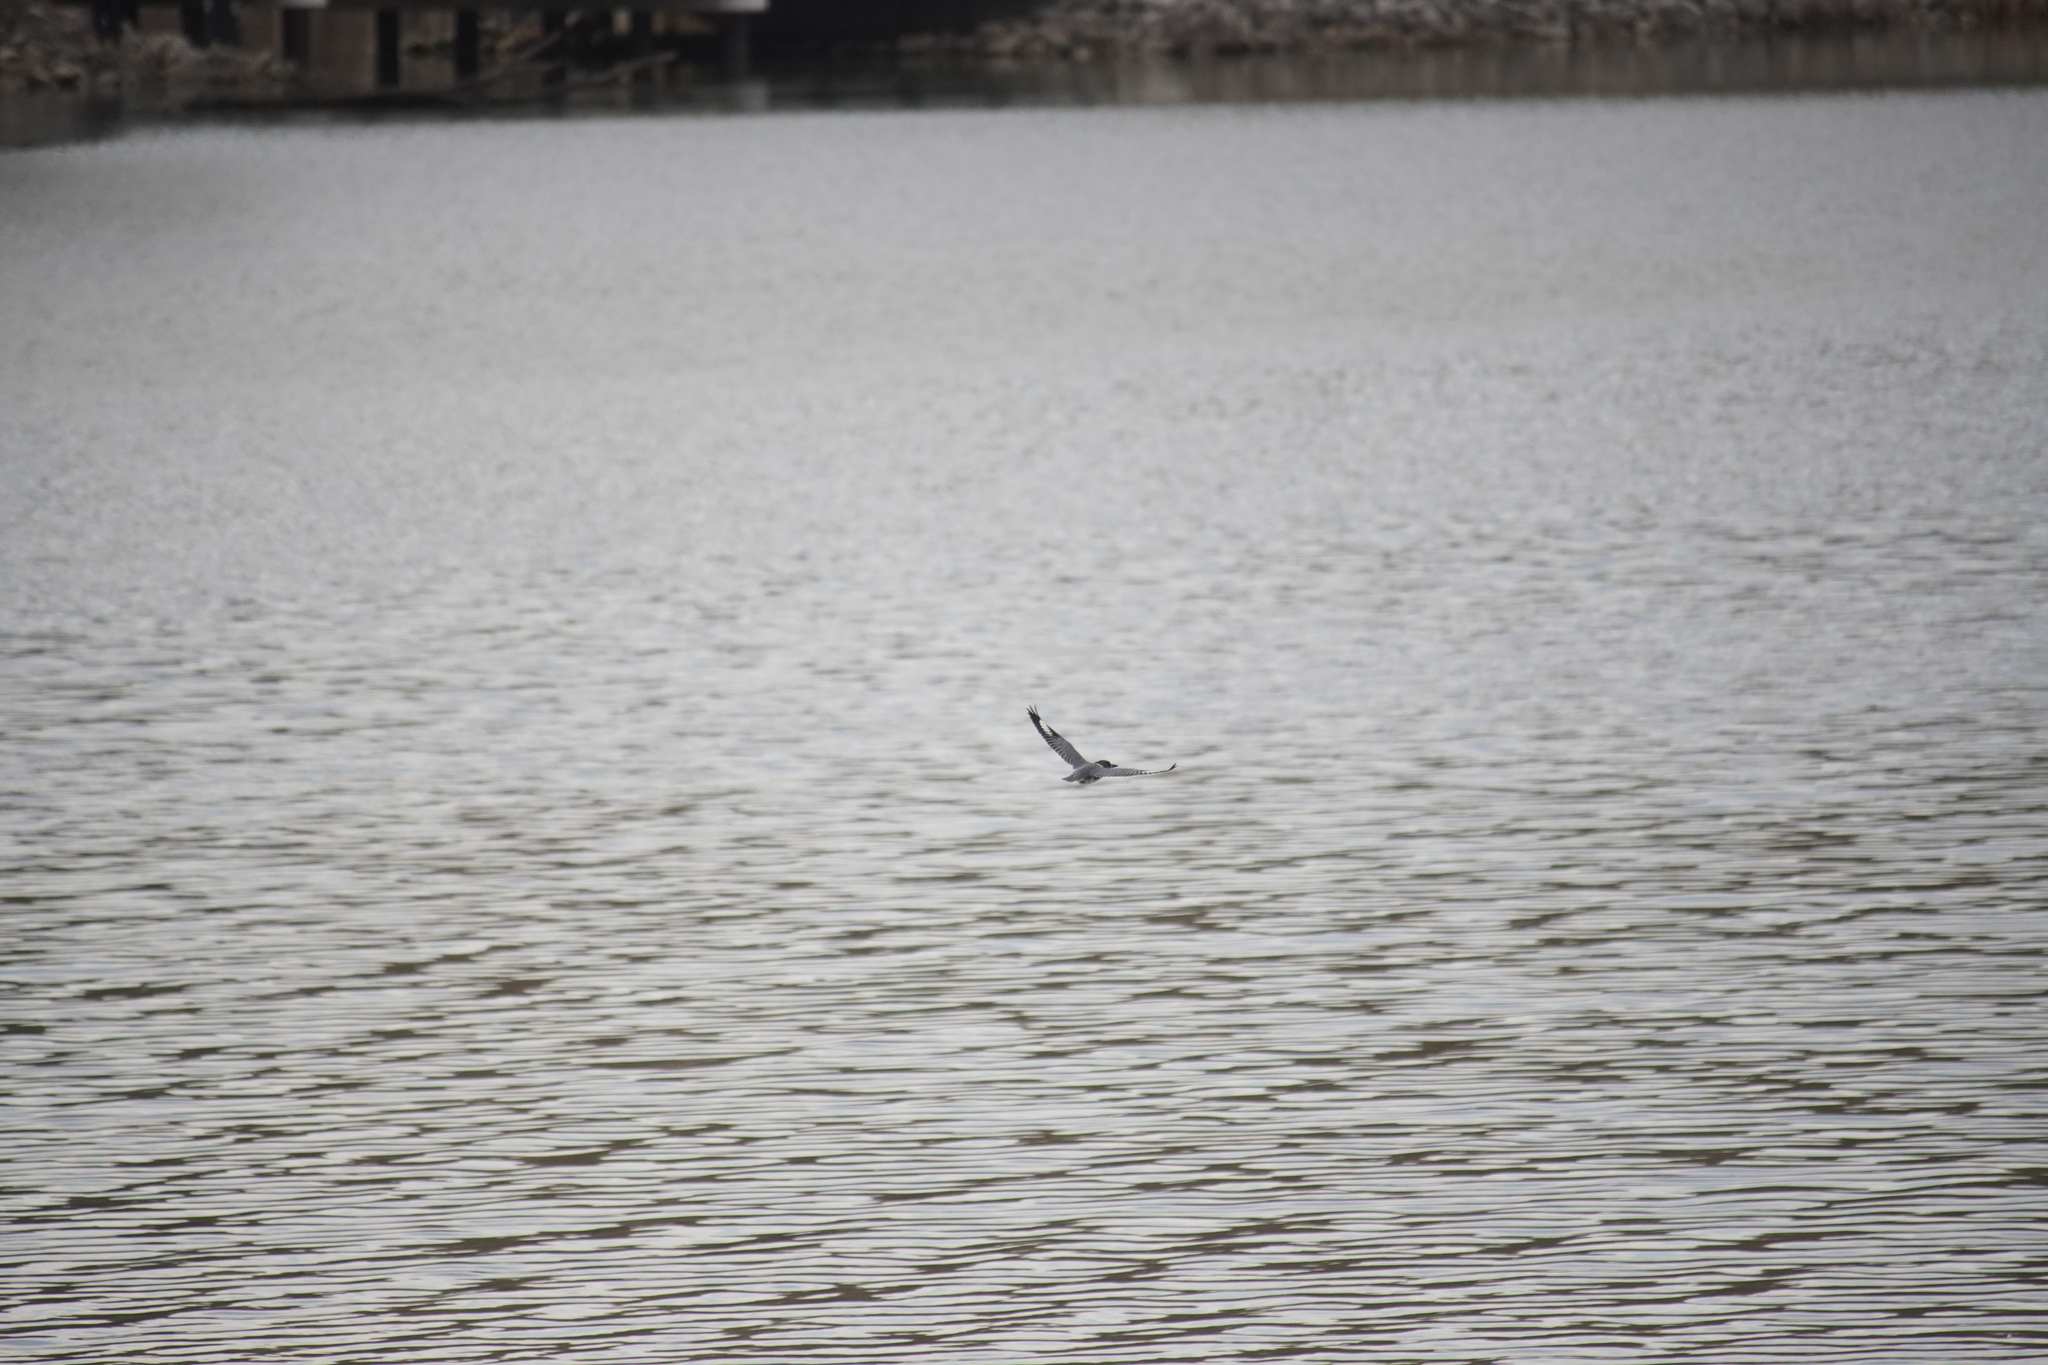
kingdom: Animalia
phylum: Chordata
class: Aves
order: Coraciiformes
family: Alcedinidae
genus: Megaceryle
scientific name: Megaceryle alcyon
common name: Belted kingfisher
